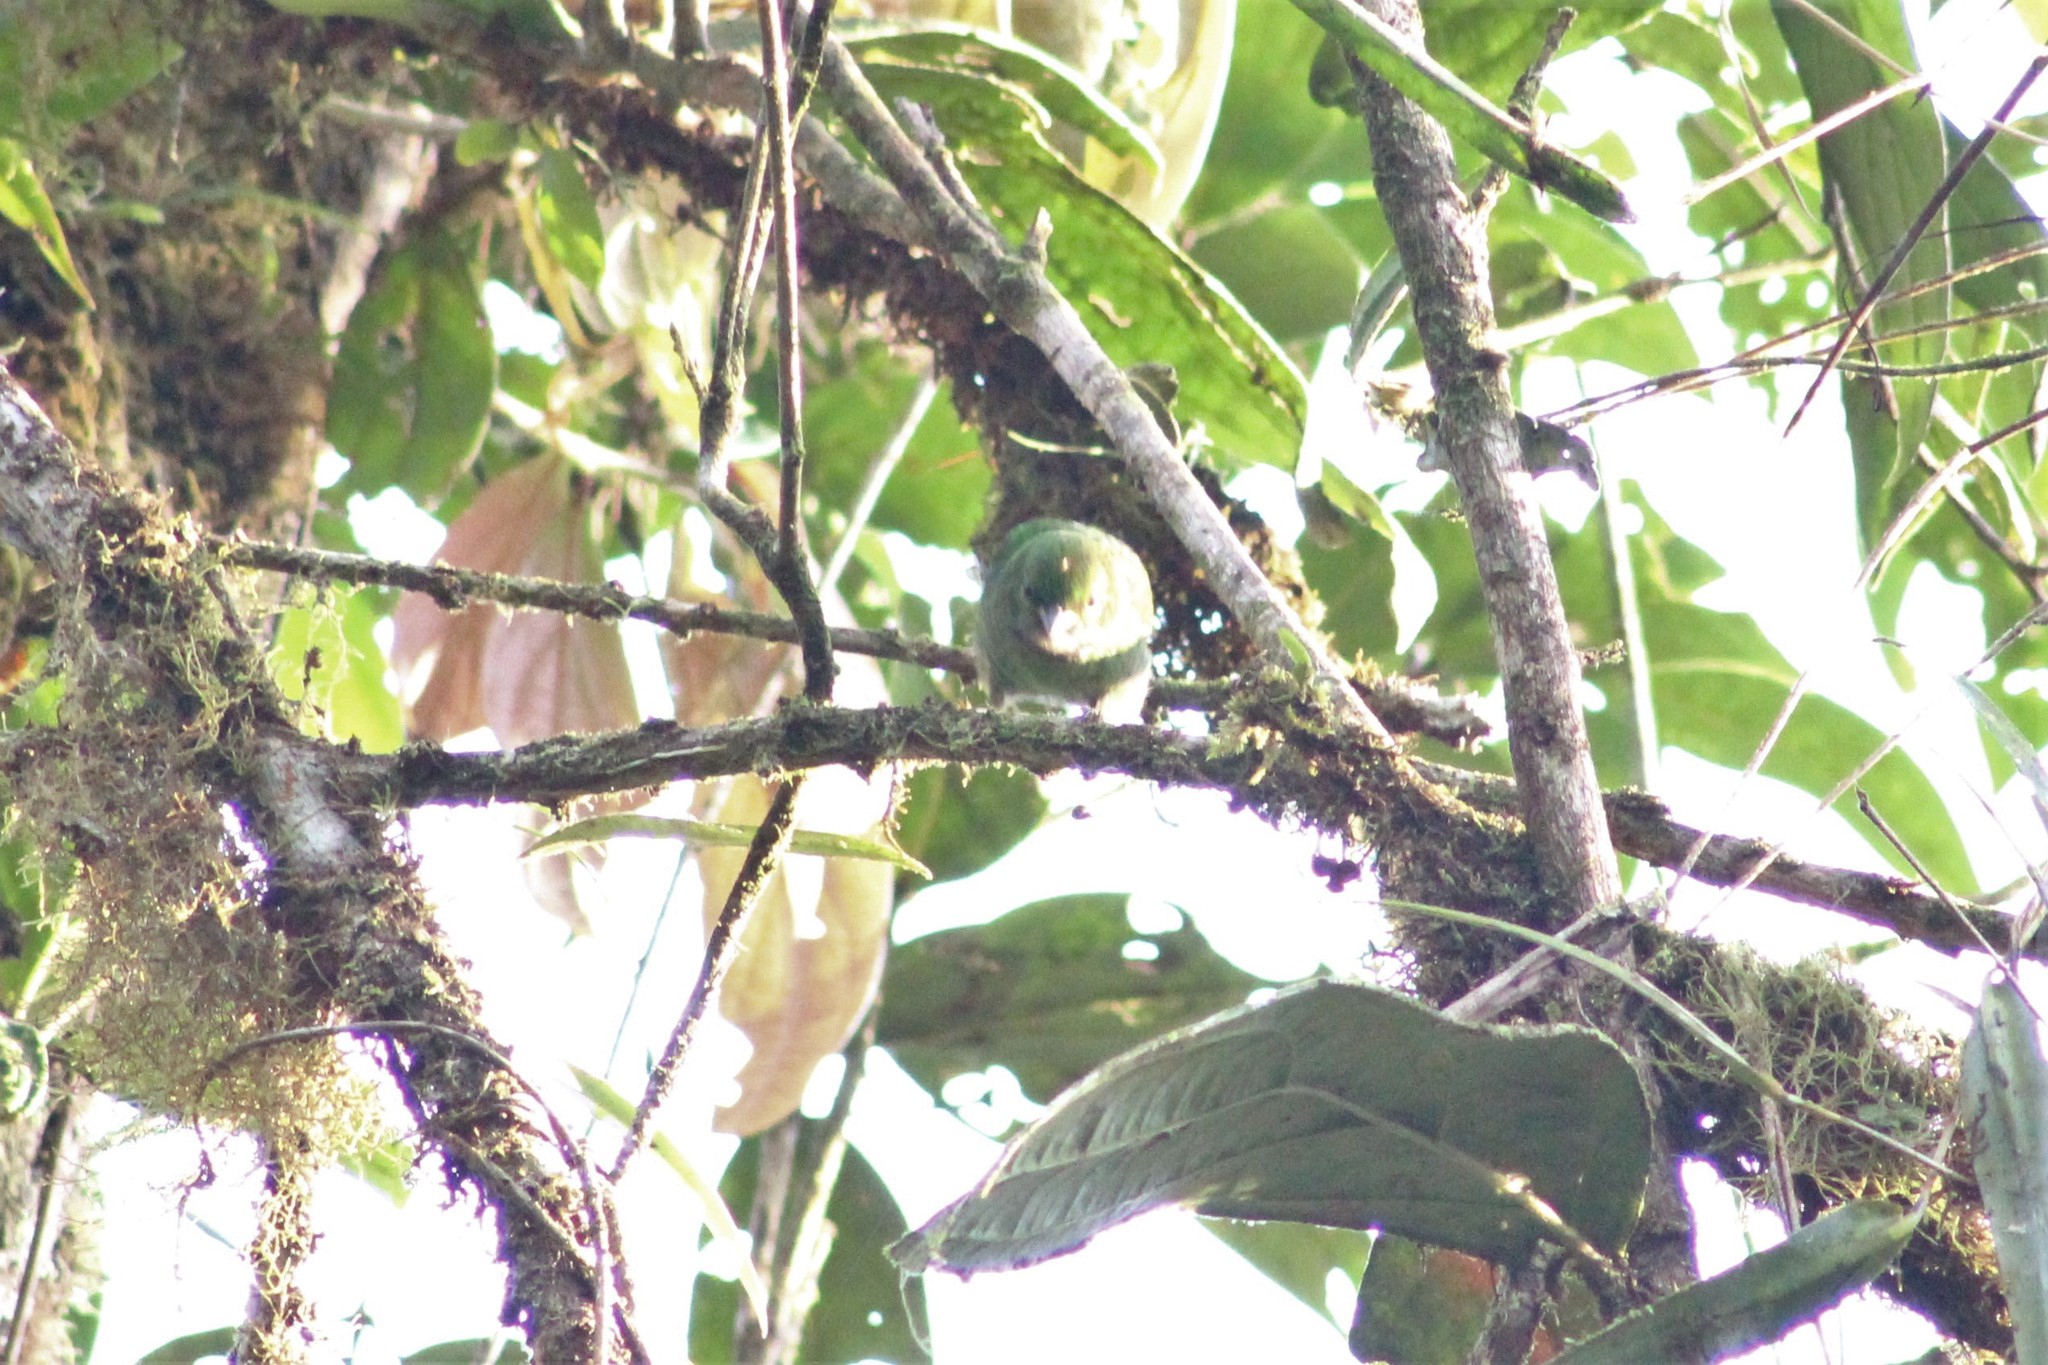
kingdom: Animalia
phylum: Chordata
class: Aves
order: Passeriformes
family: Thraupidae
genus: Chlorochrysa
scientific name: Chlorochrysa calliparaea
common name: Orange-eared tanager
